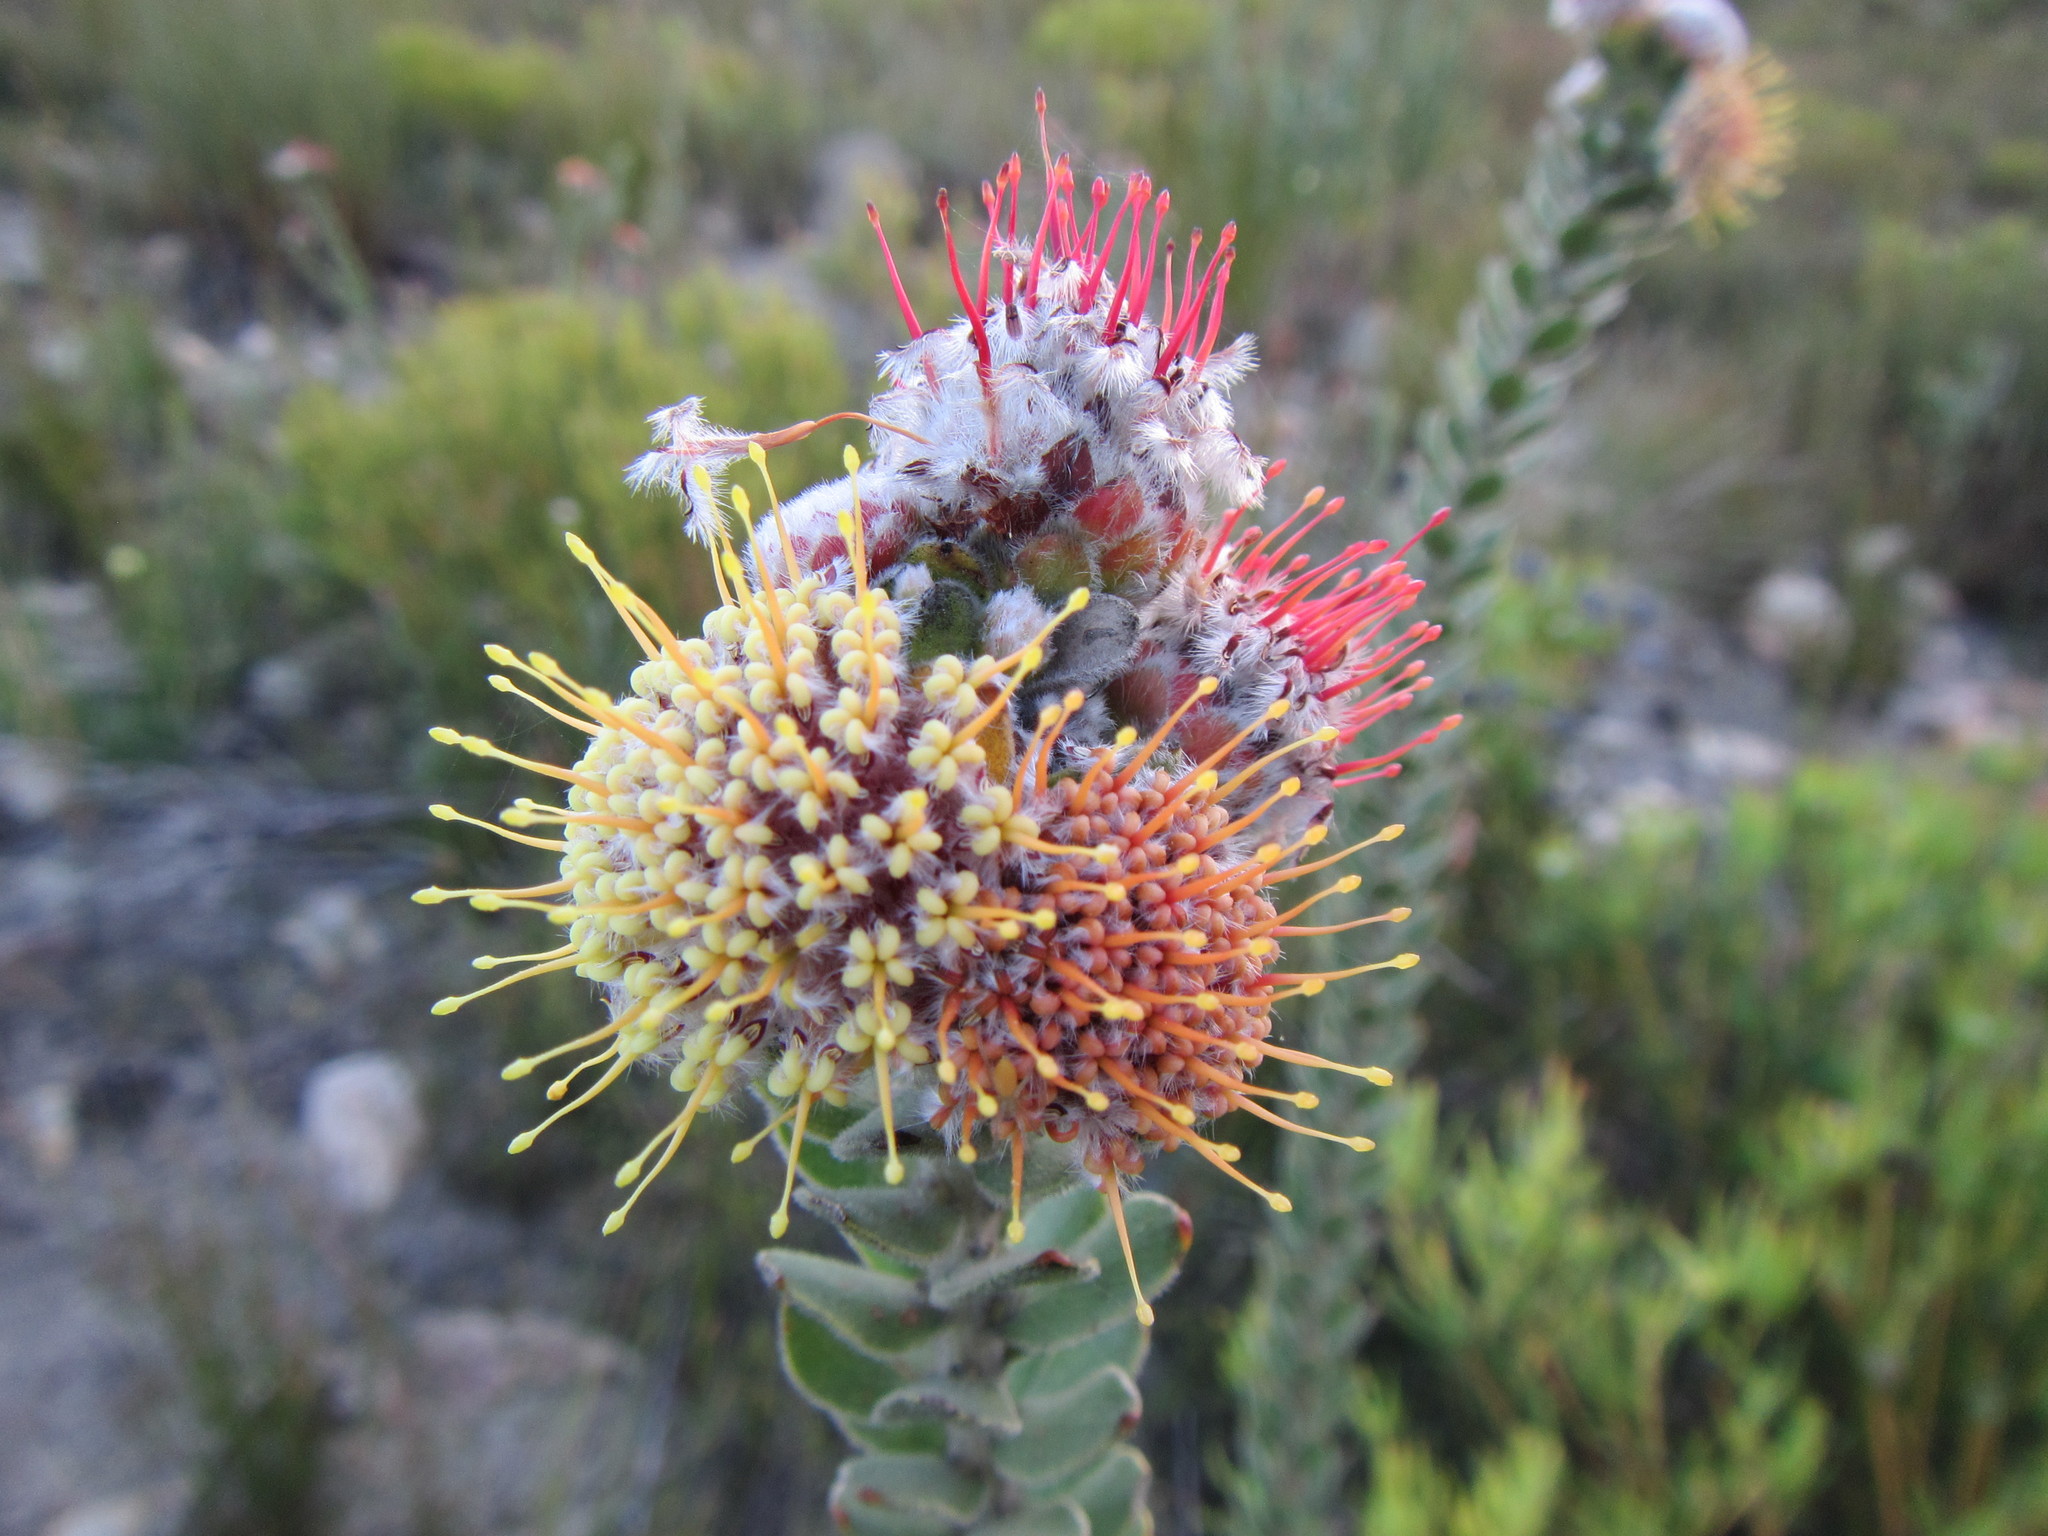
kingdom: Plantae
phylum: Tracheophyta
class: Magnoliopsida
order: Proteales
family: Proteaceae
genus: Leucospermum
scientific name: Leucospermum truncatulum
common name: Oval-leaf pincushion
